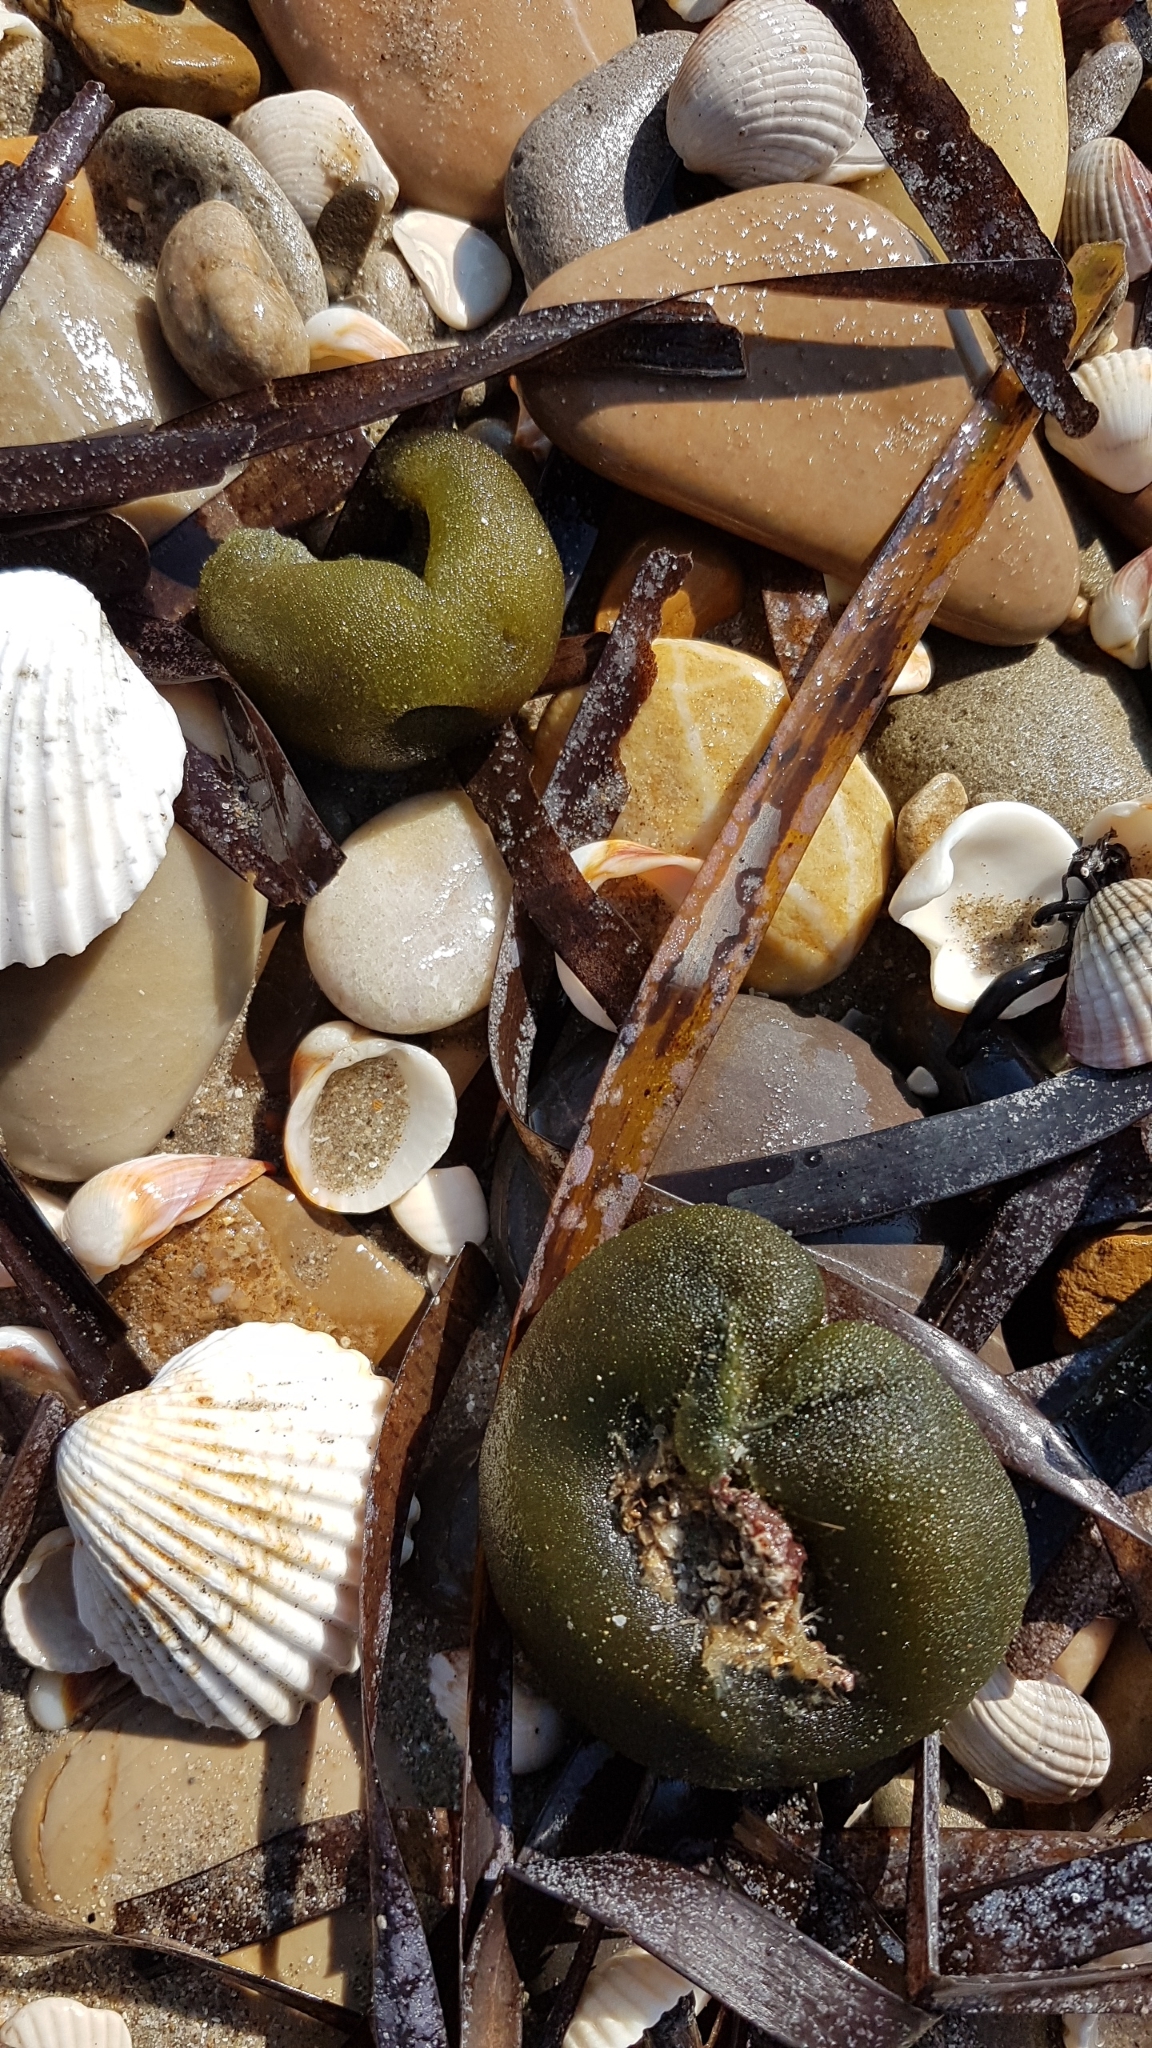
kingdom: Plantae
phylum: Chlorophyta
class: Ulvophyceae
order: Bryopsidales
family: Codiaceae
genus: Codium
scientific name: Codium bursa
